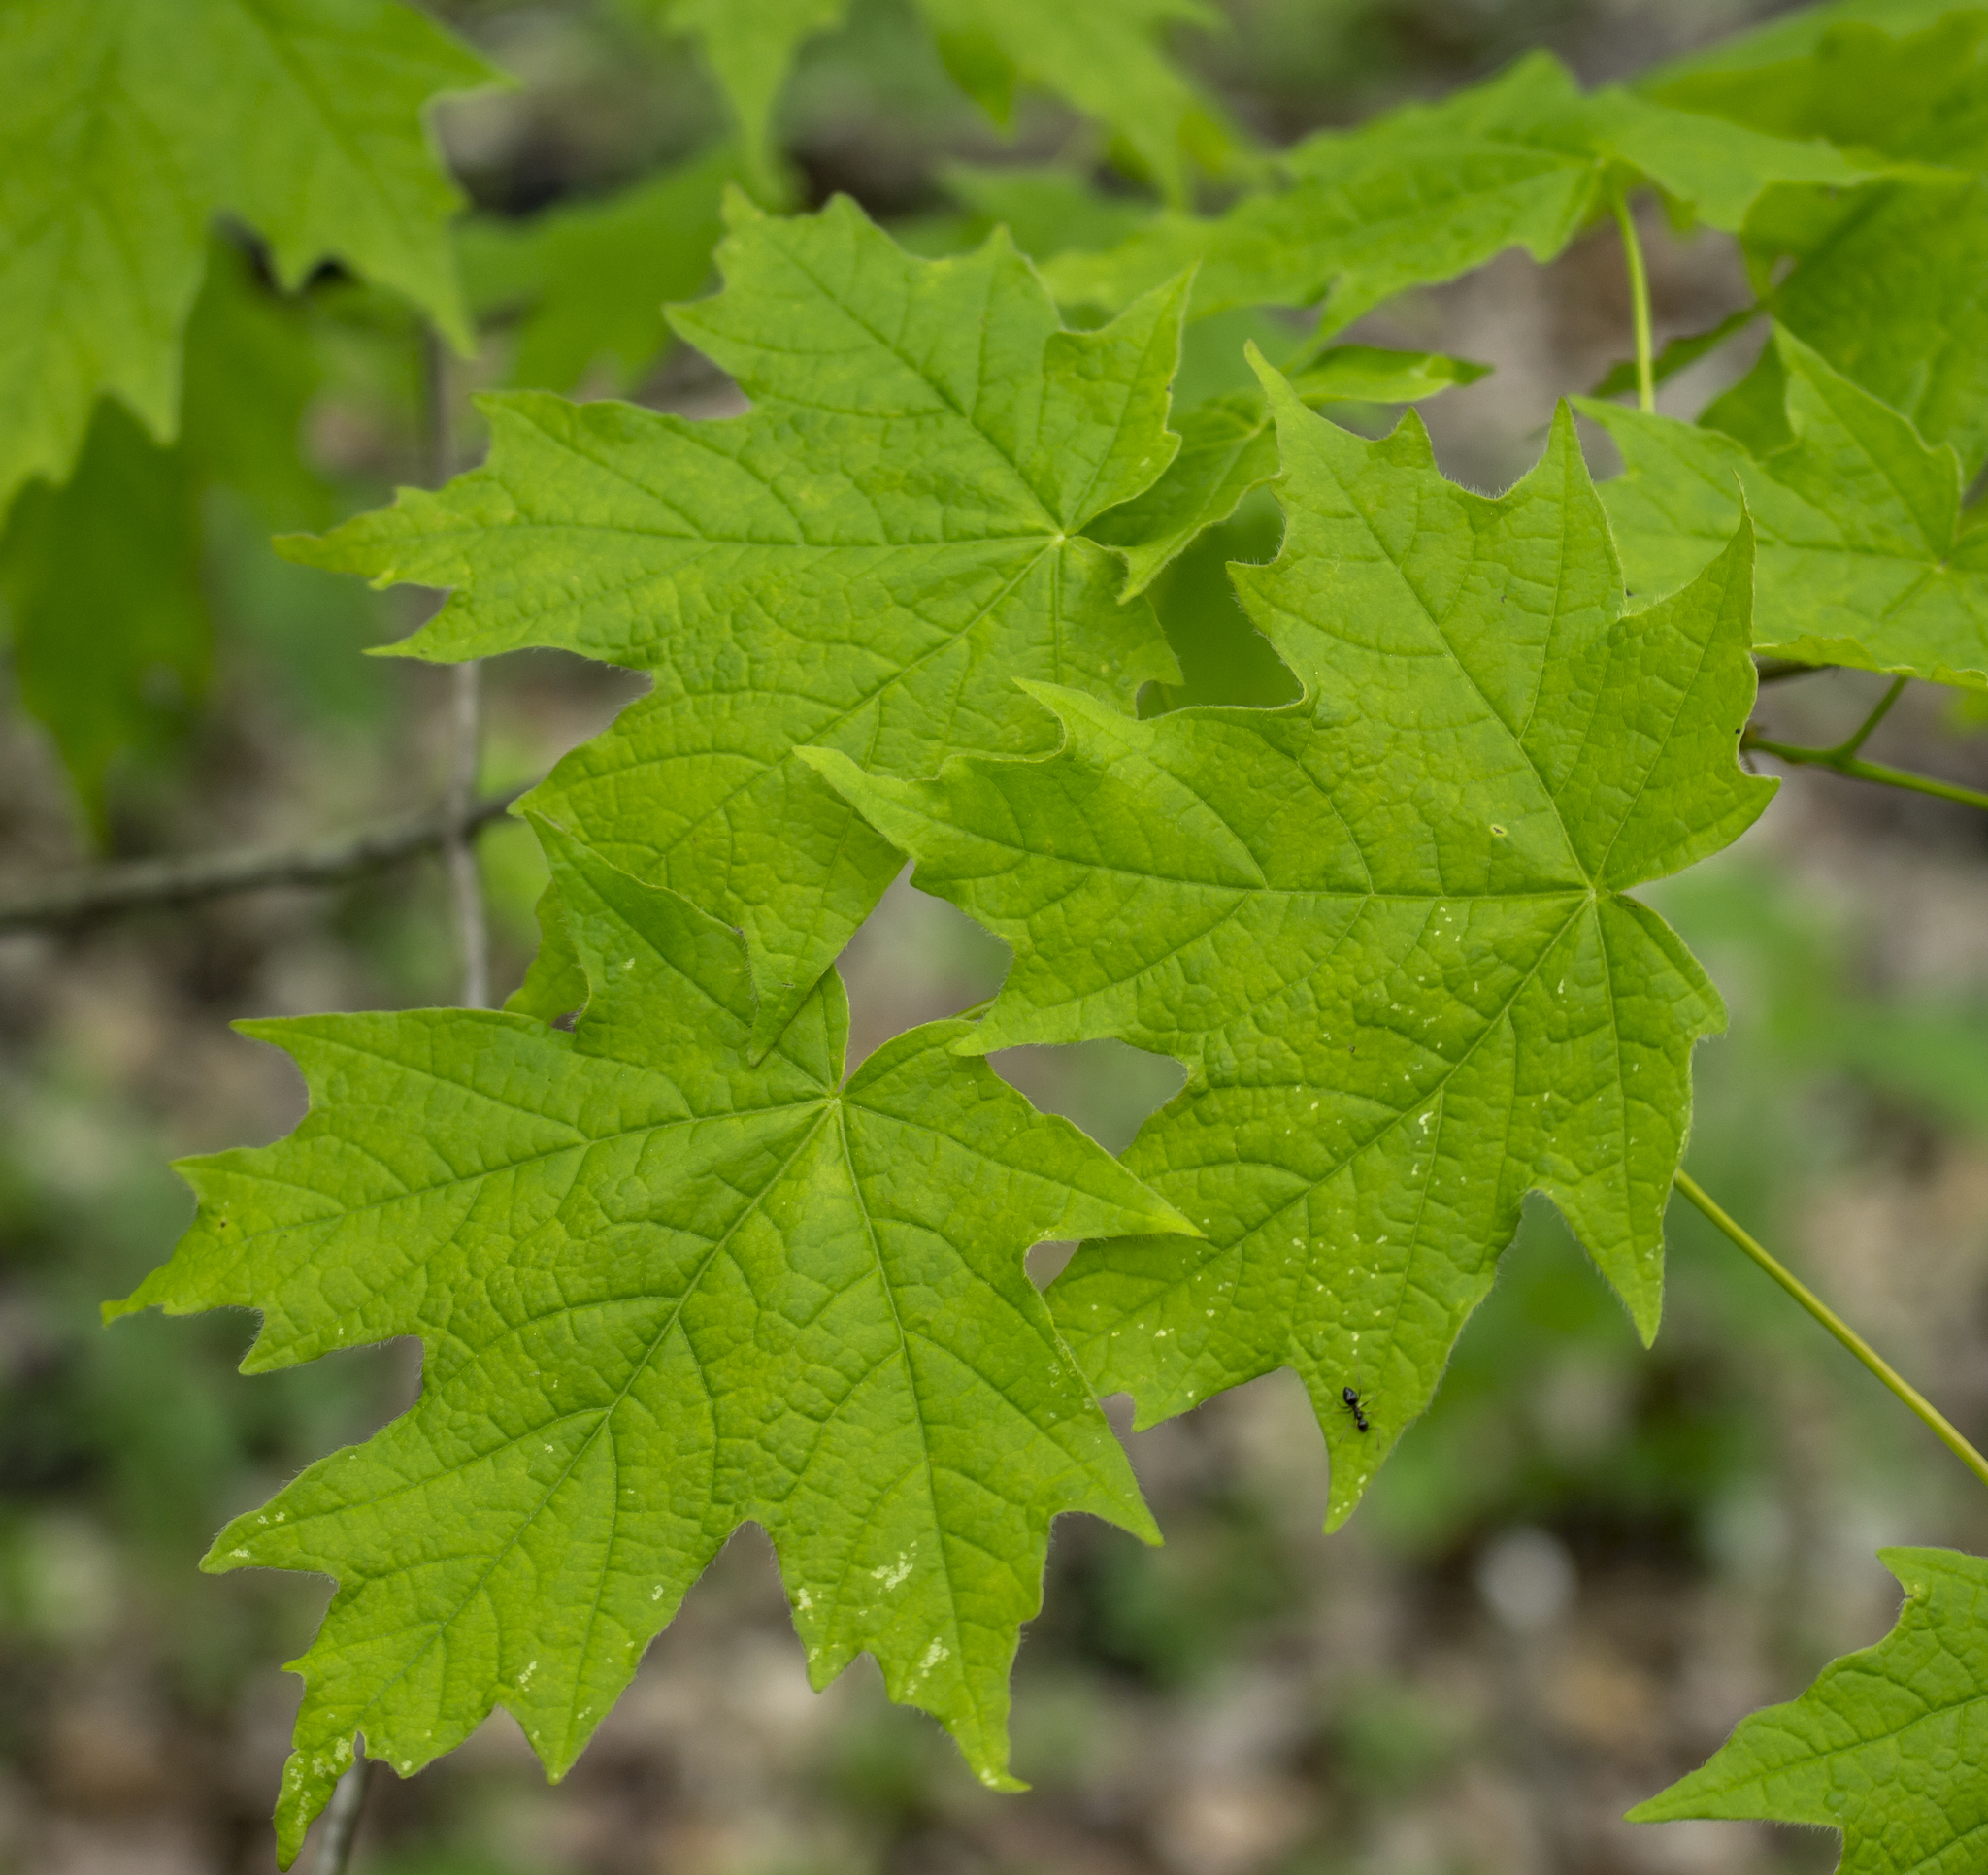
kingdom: Plantae
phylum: Tracheophyta
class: Magnoliopsida
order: Sapindales
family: Sapindaceae
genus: Acer
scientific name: Acer saccharum
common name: Sugar maple
